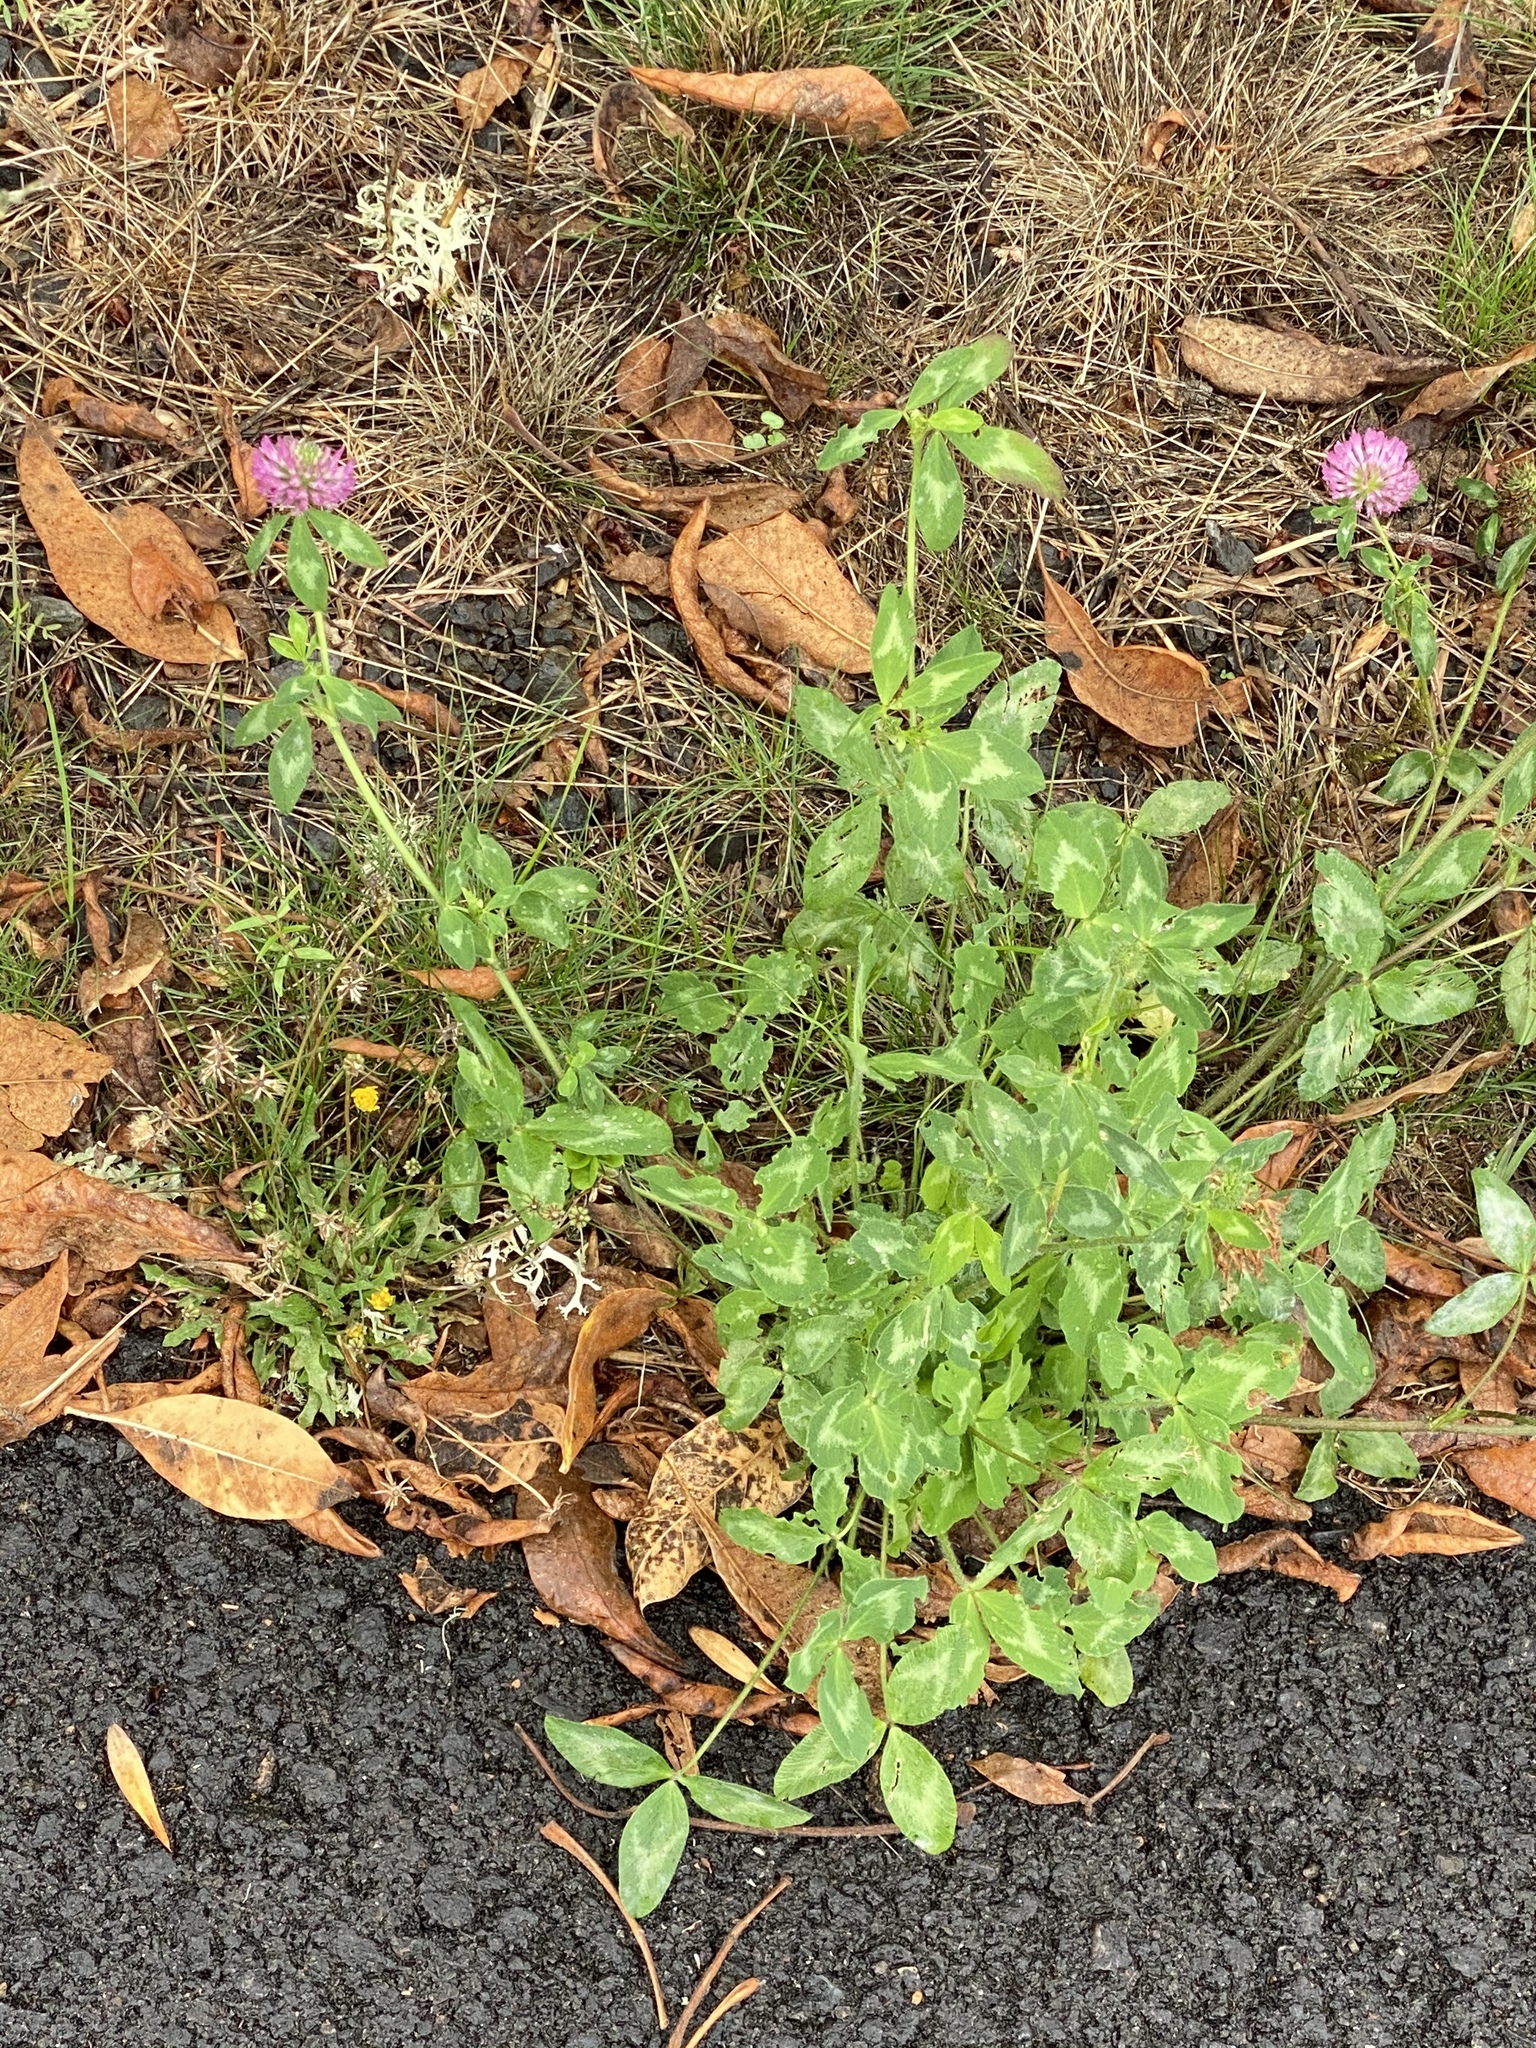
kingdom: Plantae
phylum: Tracheophyta
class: Magnoliopsida
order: Fabales
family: Fabaceae
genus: Trifolium
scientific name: Trifolium pratense
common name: Red clover
